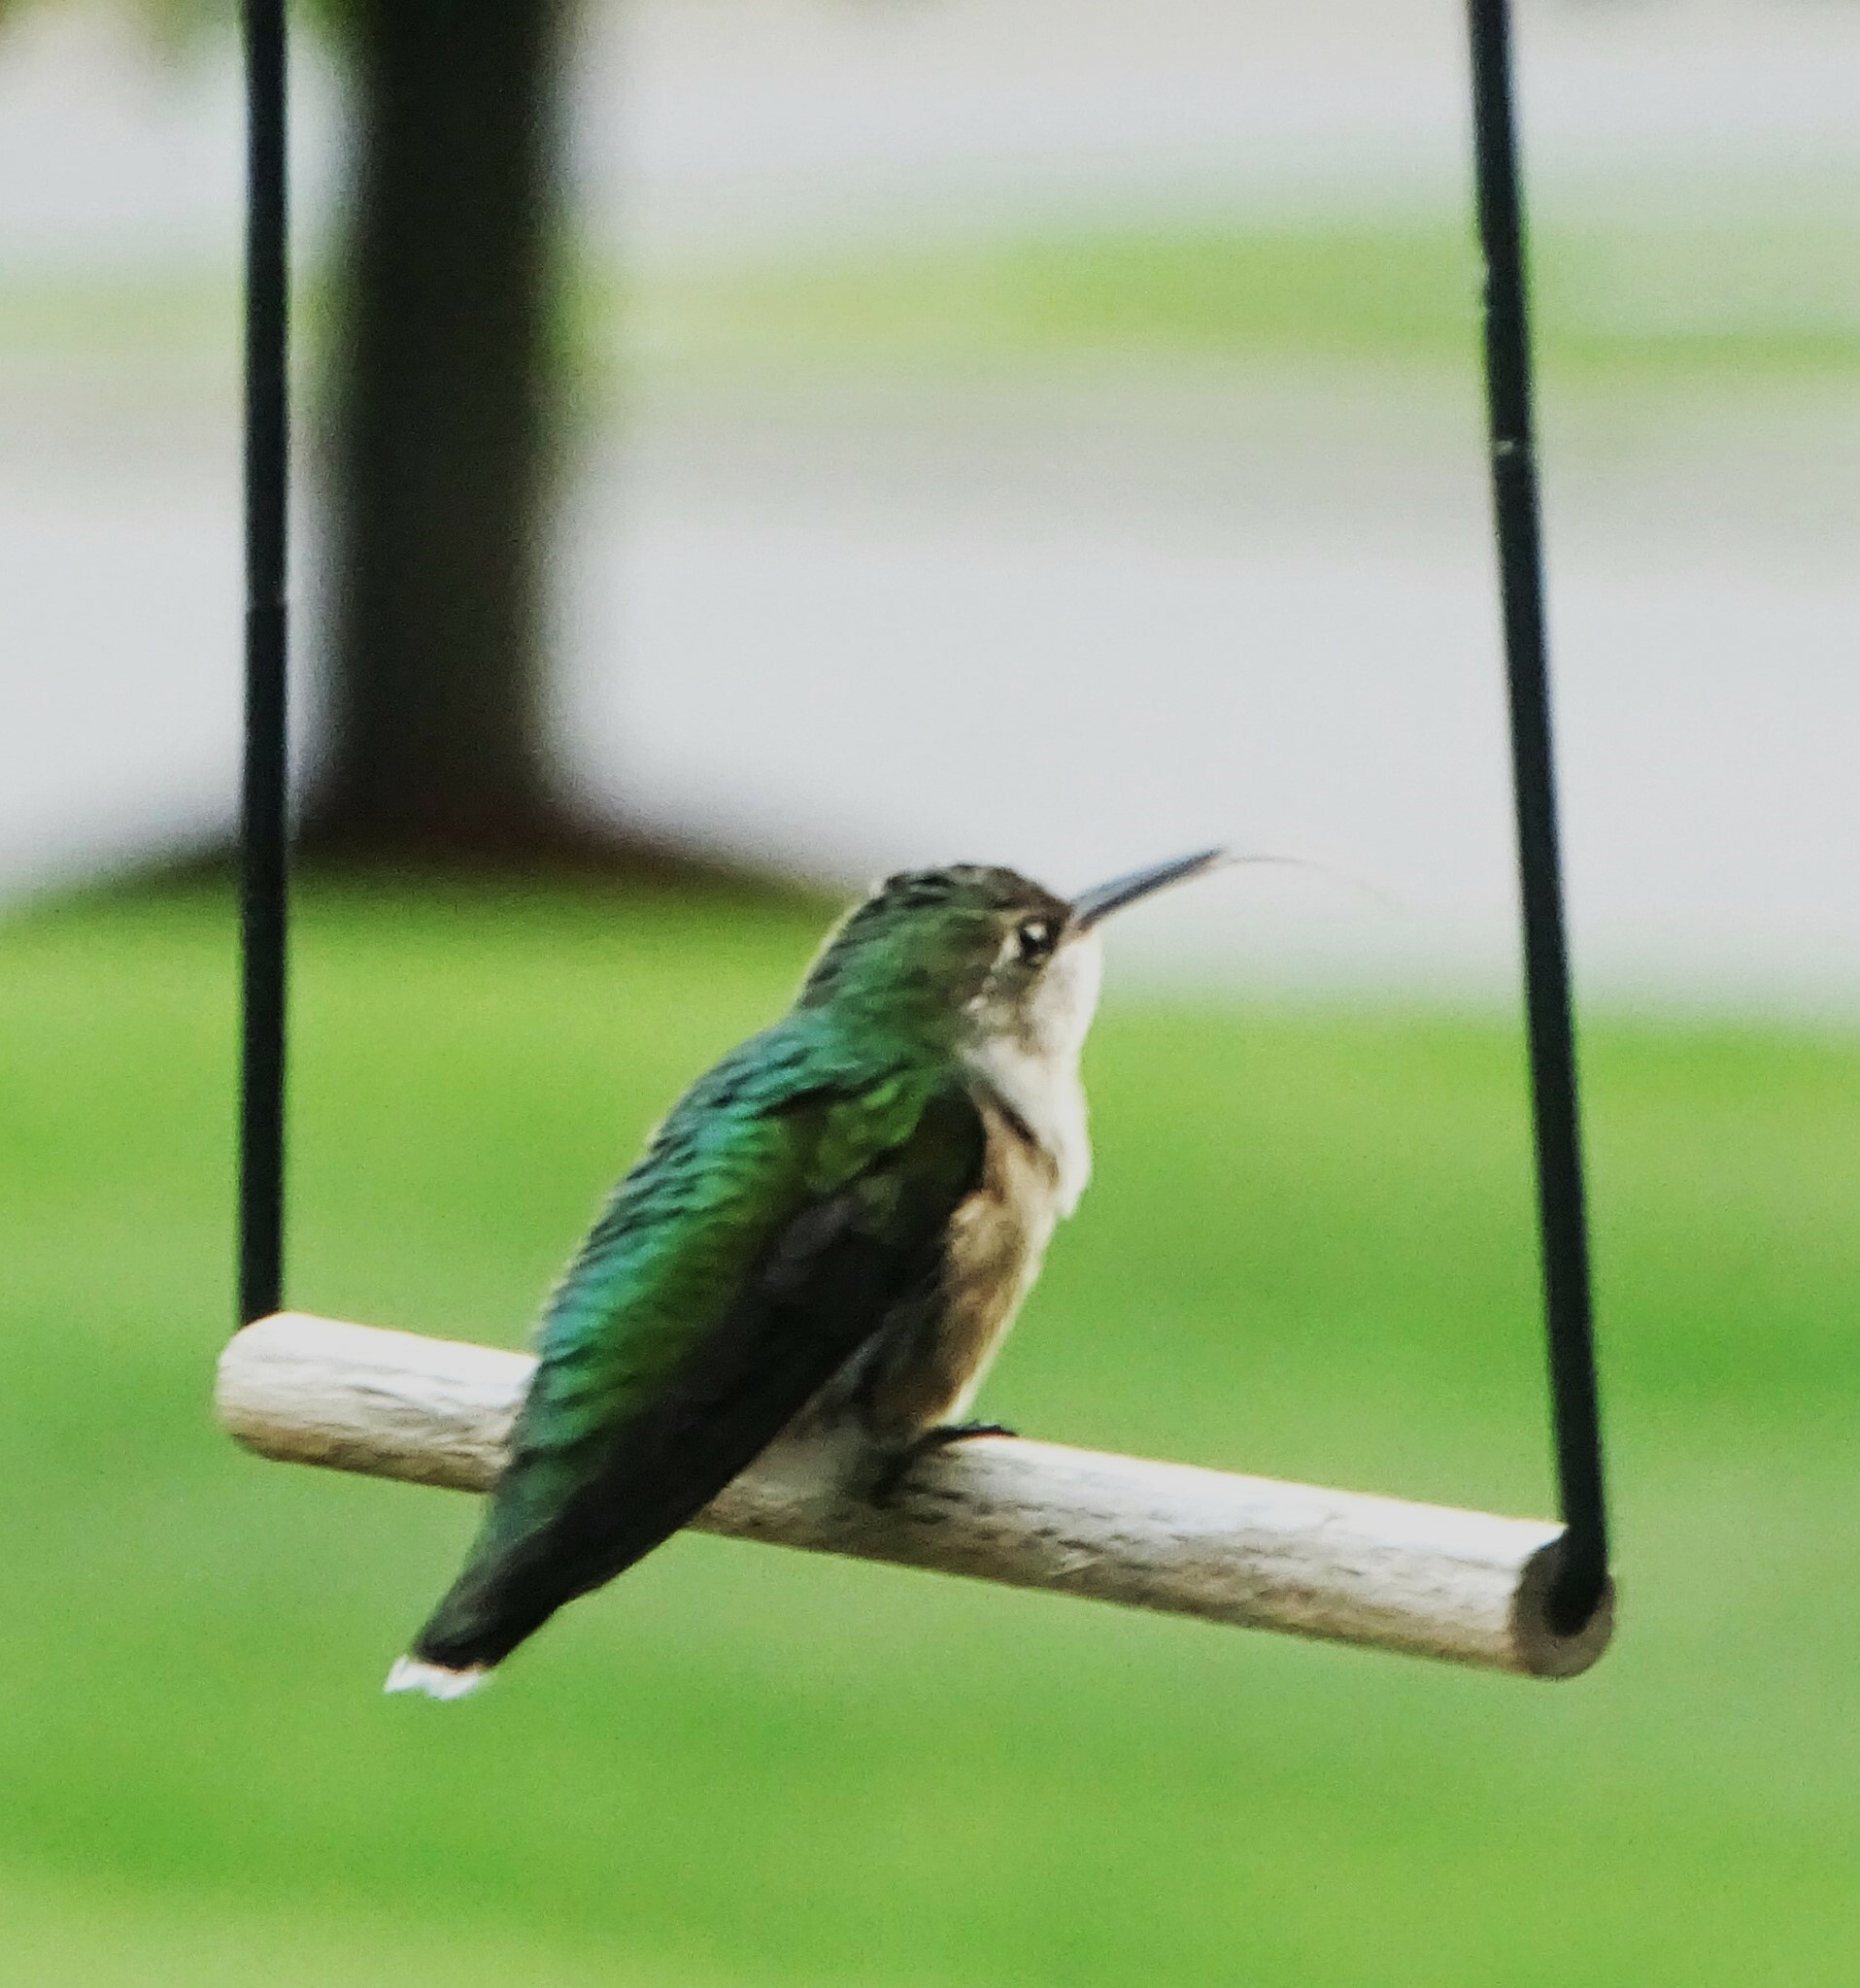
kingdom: Animalia
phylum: Chordata
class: Aves
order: Apodiformes
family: Trochilidae
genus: Archilochus
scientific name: Archilochus colubris
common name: Ruby-throated hummingbird
